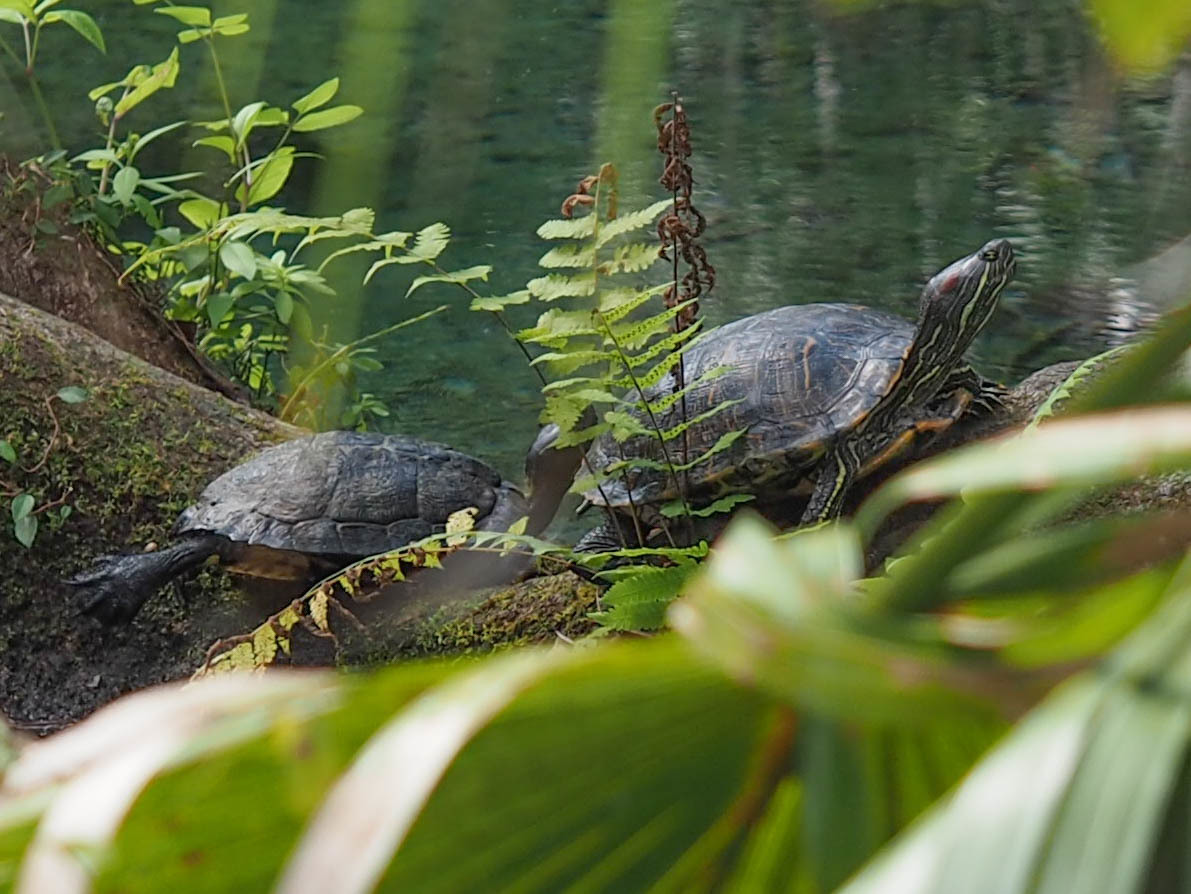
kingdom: Animalia
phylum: Chordata
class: Testudines
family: Emydidae
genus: Trachemys
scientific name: Trachemys scripta
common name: Slider
